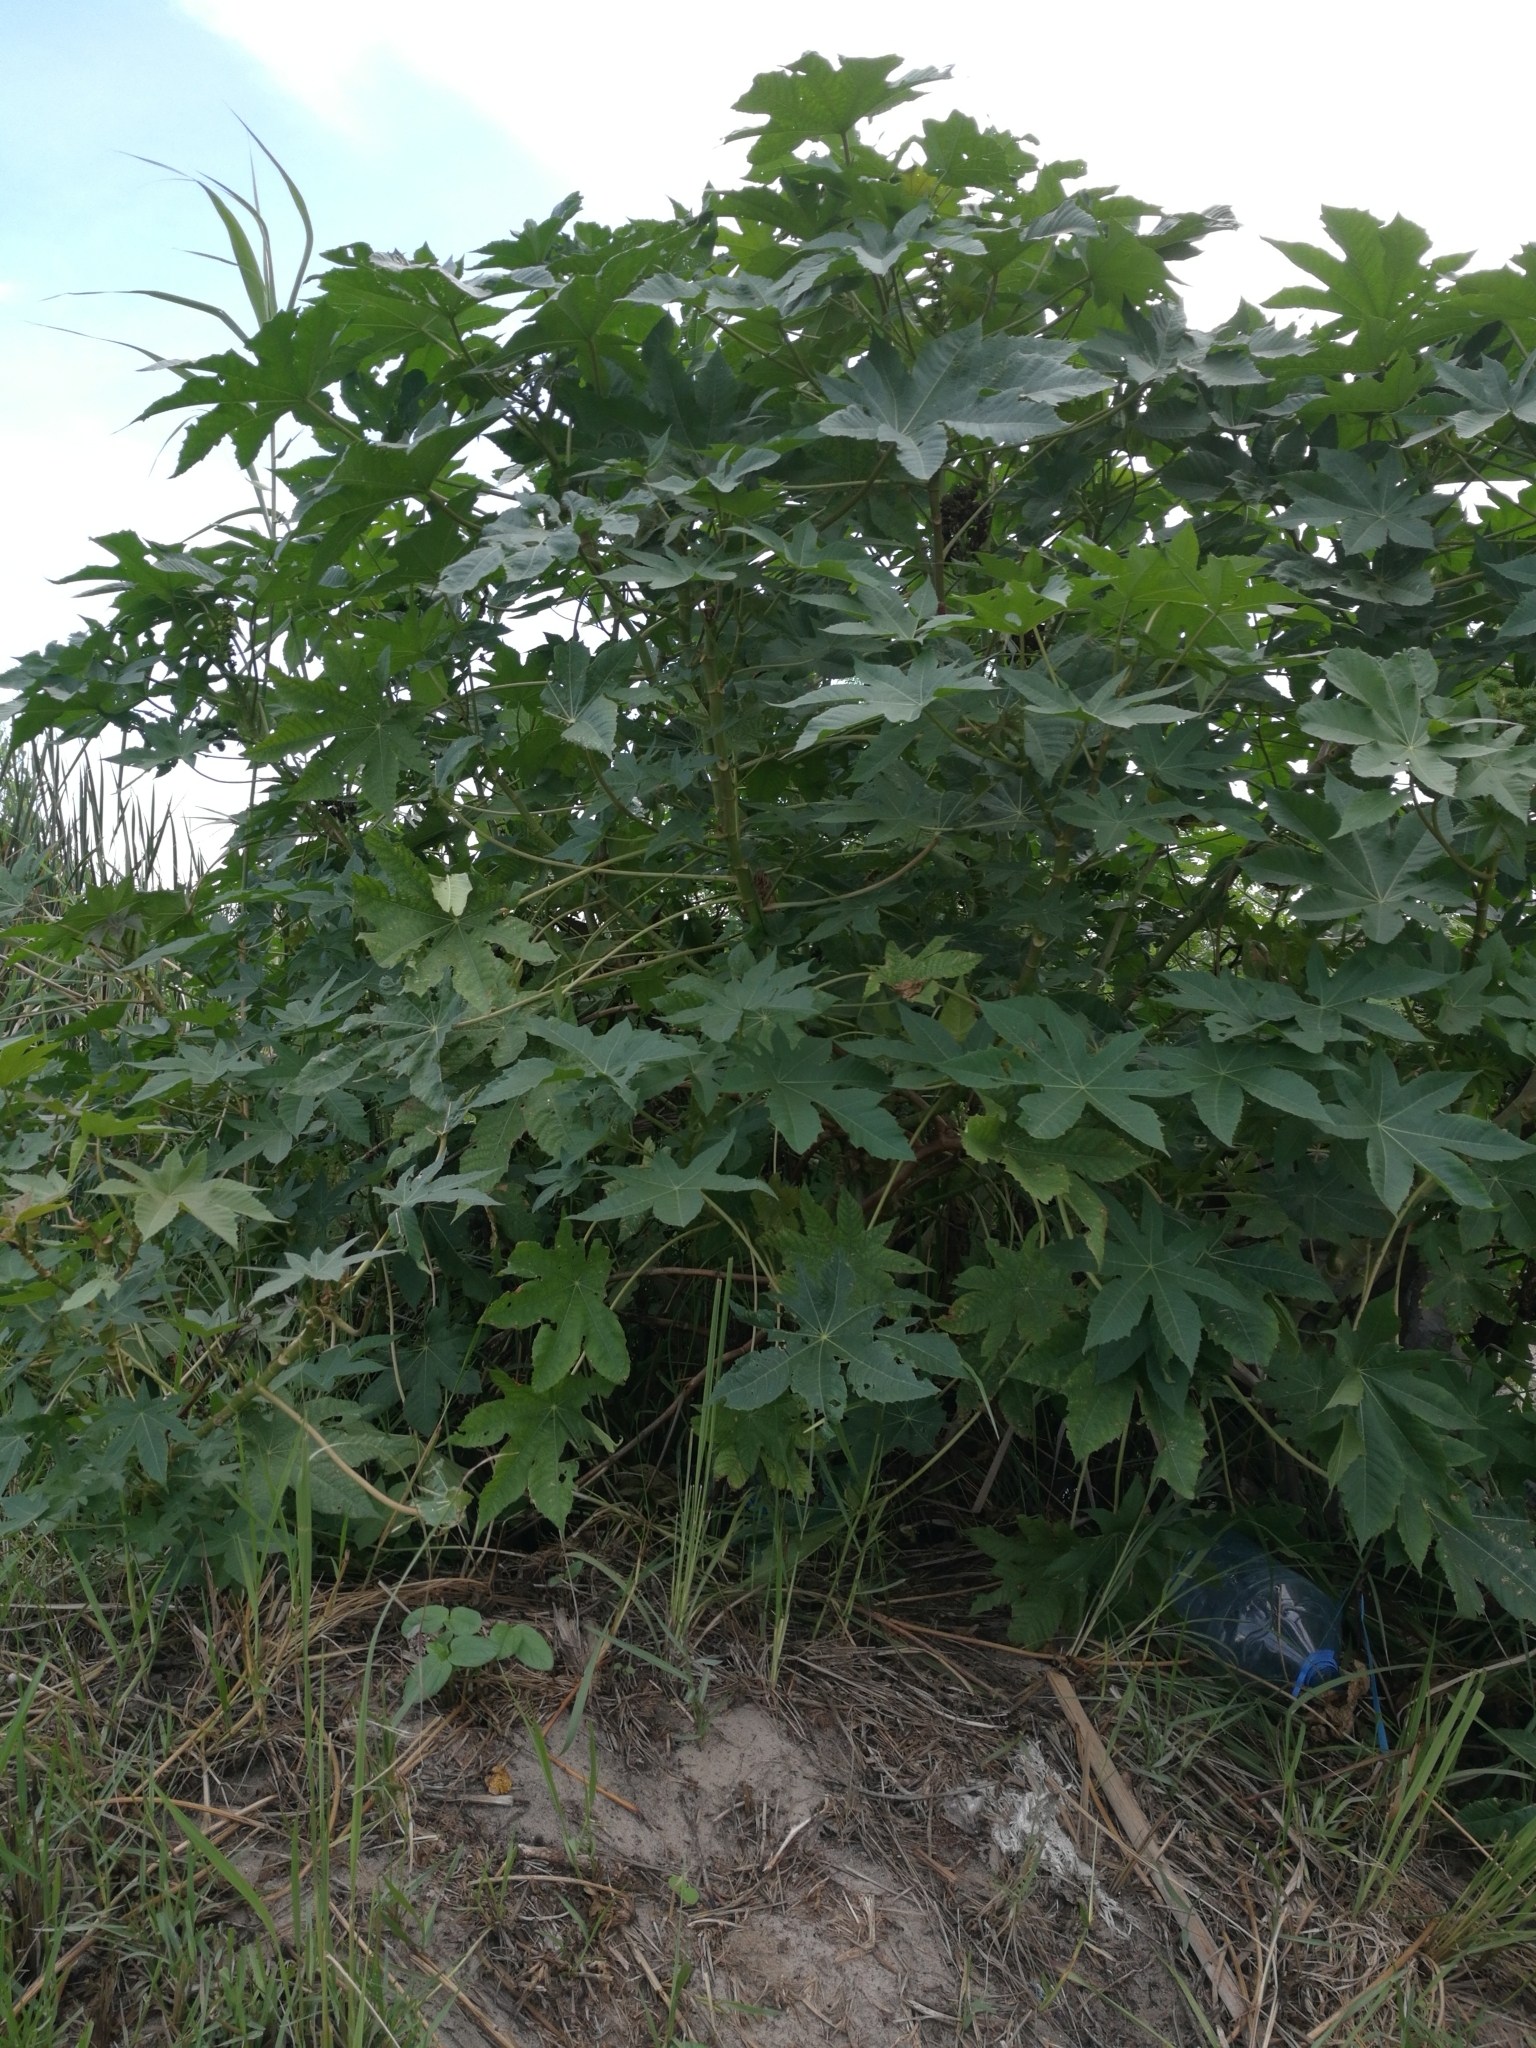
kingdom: Plantae
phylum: Tracheophyta
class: Magnoliopsida
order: Malpighiales
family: Euphorbiaceae
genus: Ricinus
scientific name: Ricinus communis
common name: Castor-oil-plant
